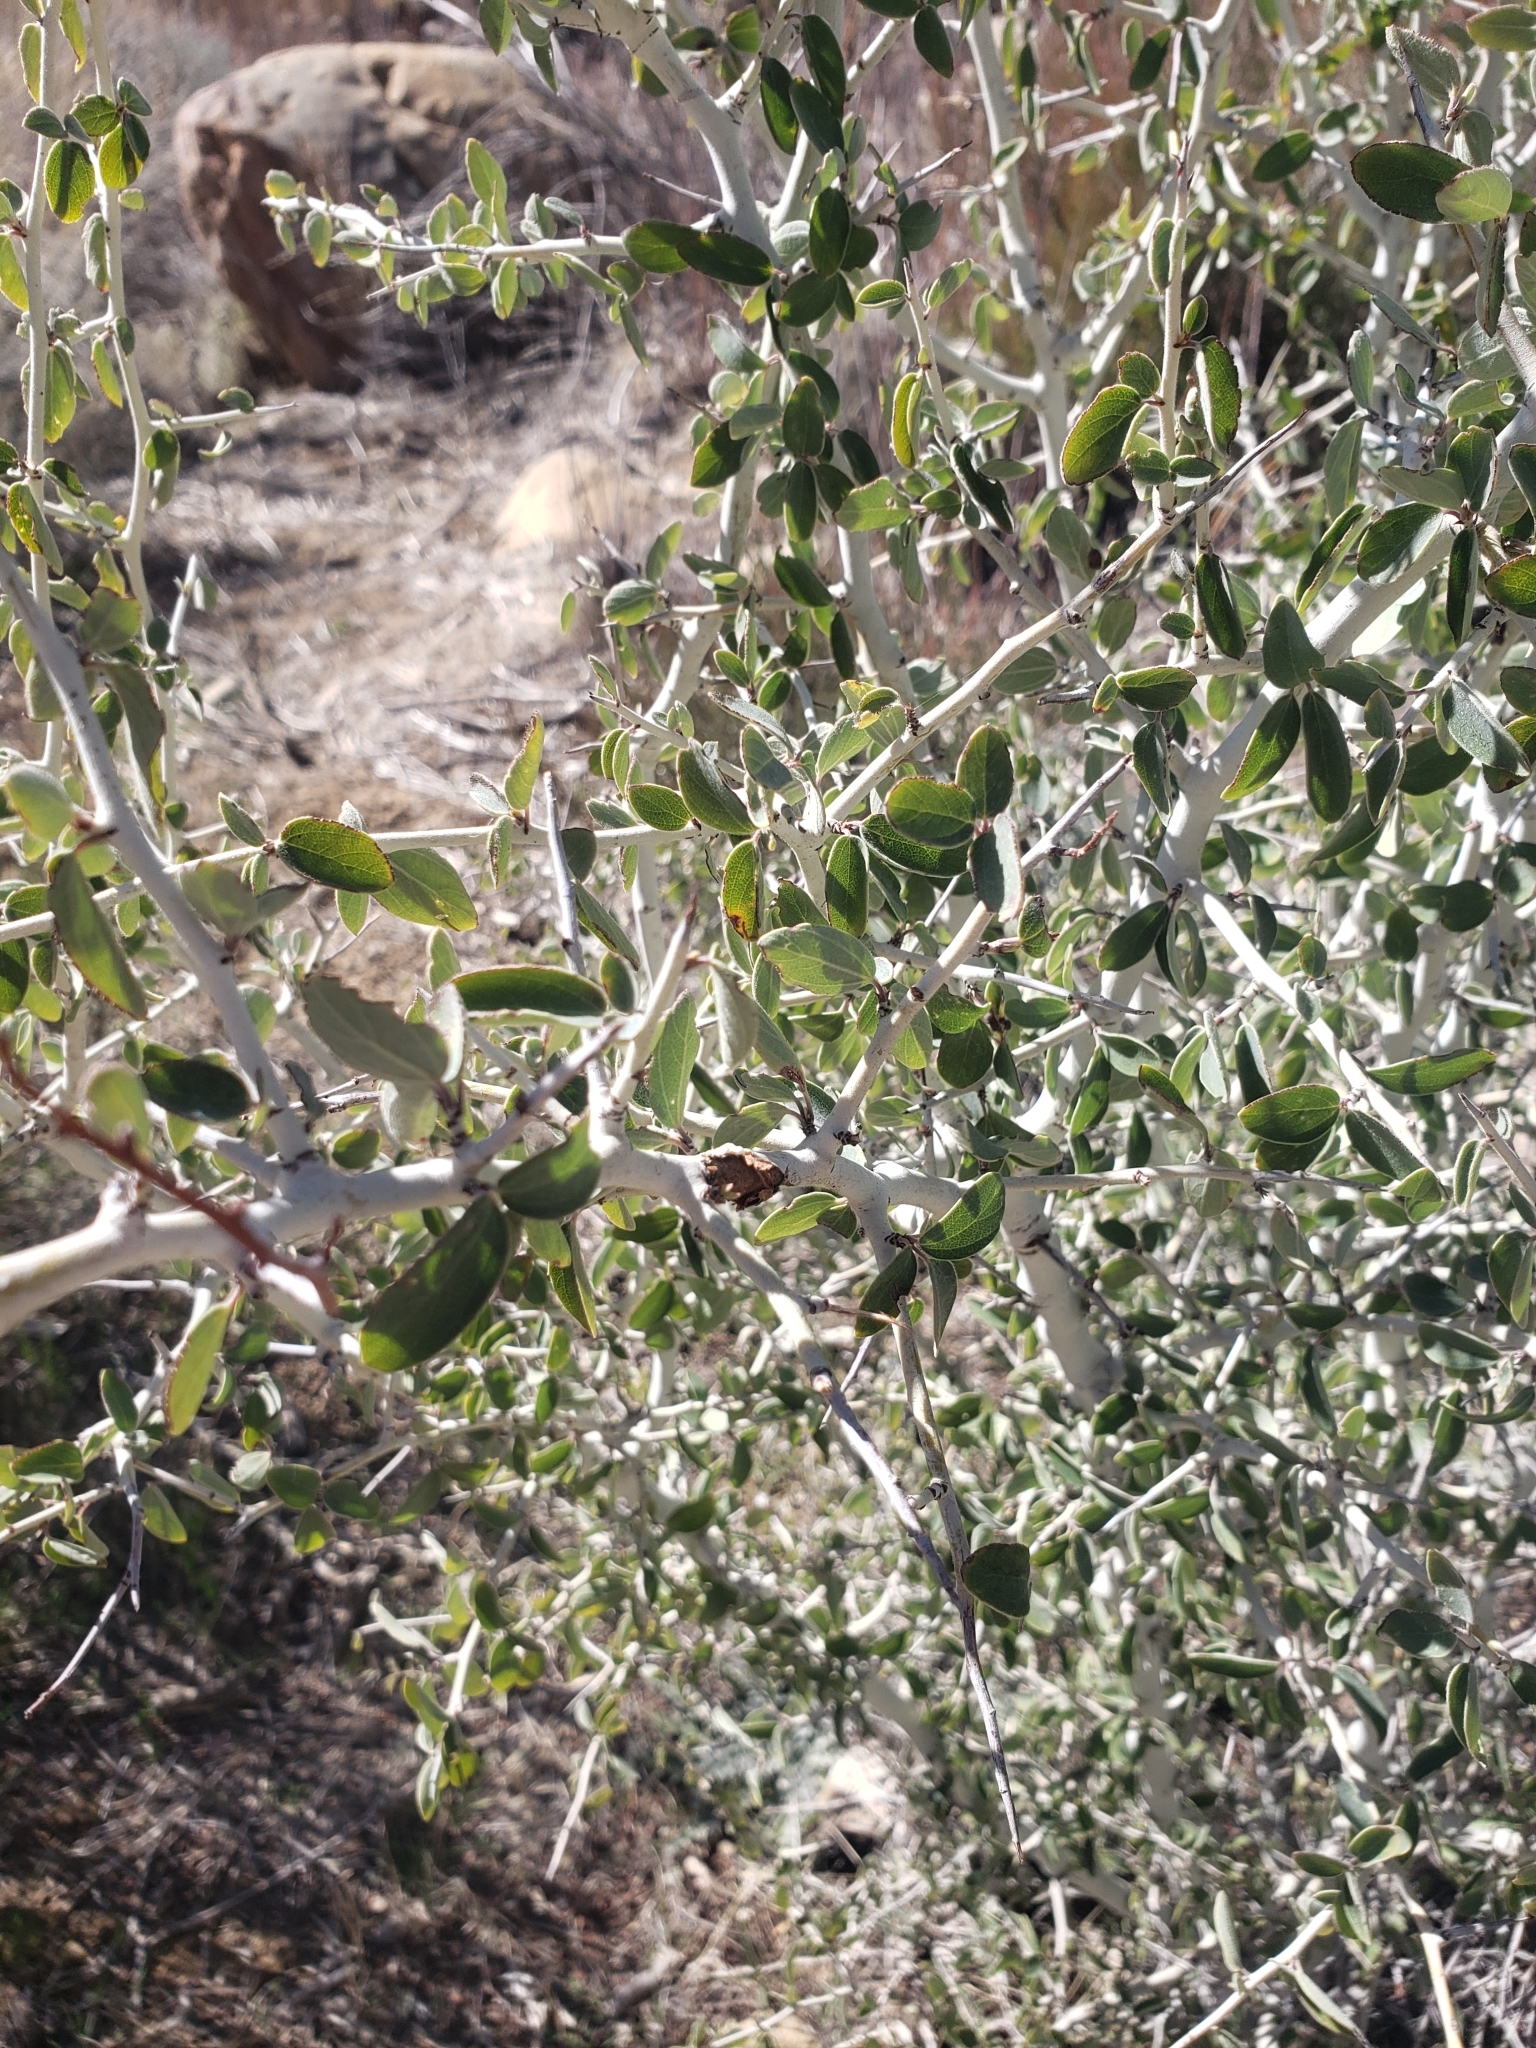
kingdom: Plantae
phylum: Tracheophyta
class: Magnoliopsida
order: Rosales
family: Rhamnaceae
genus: Ceanothus
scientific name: Ceanothus leucodermis
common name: Chaparral whitethorn
